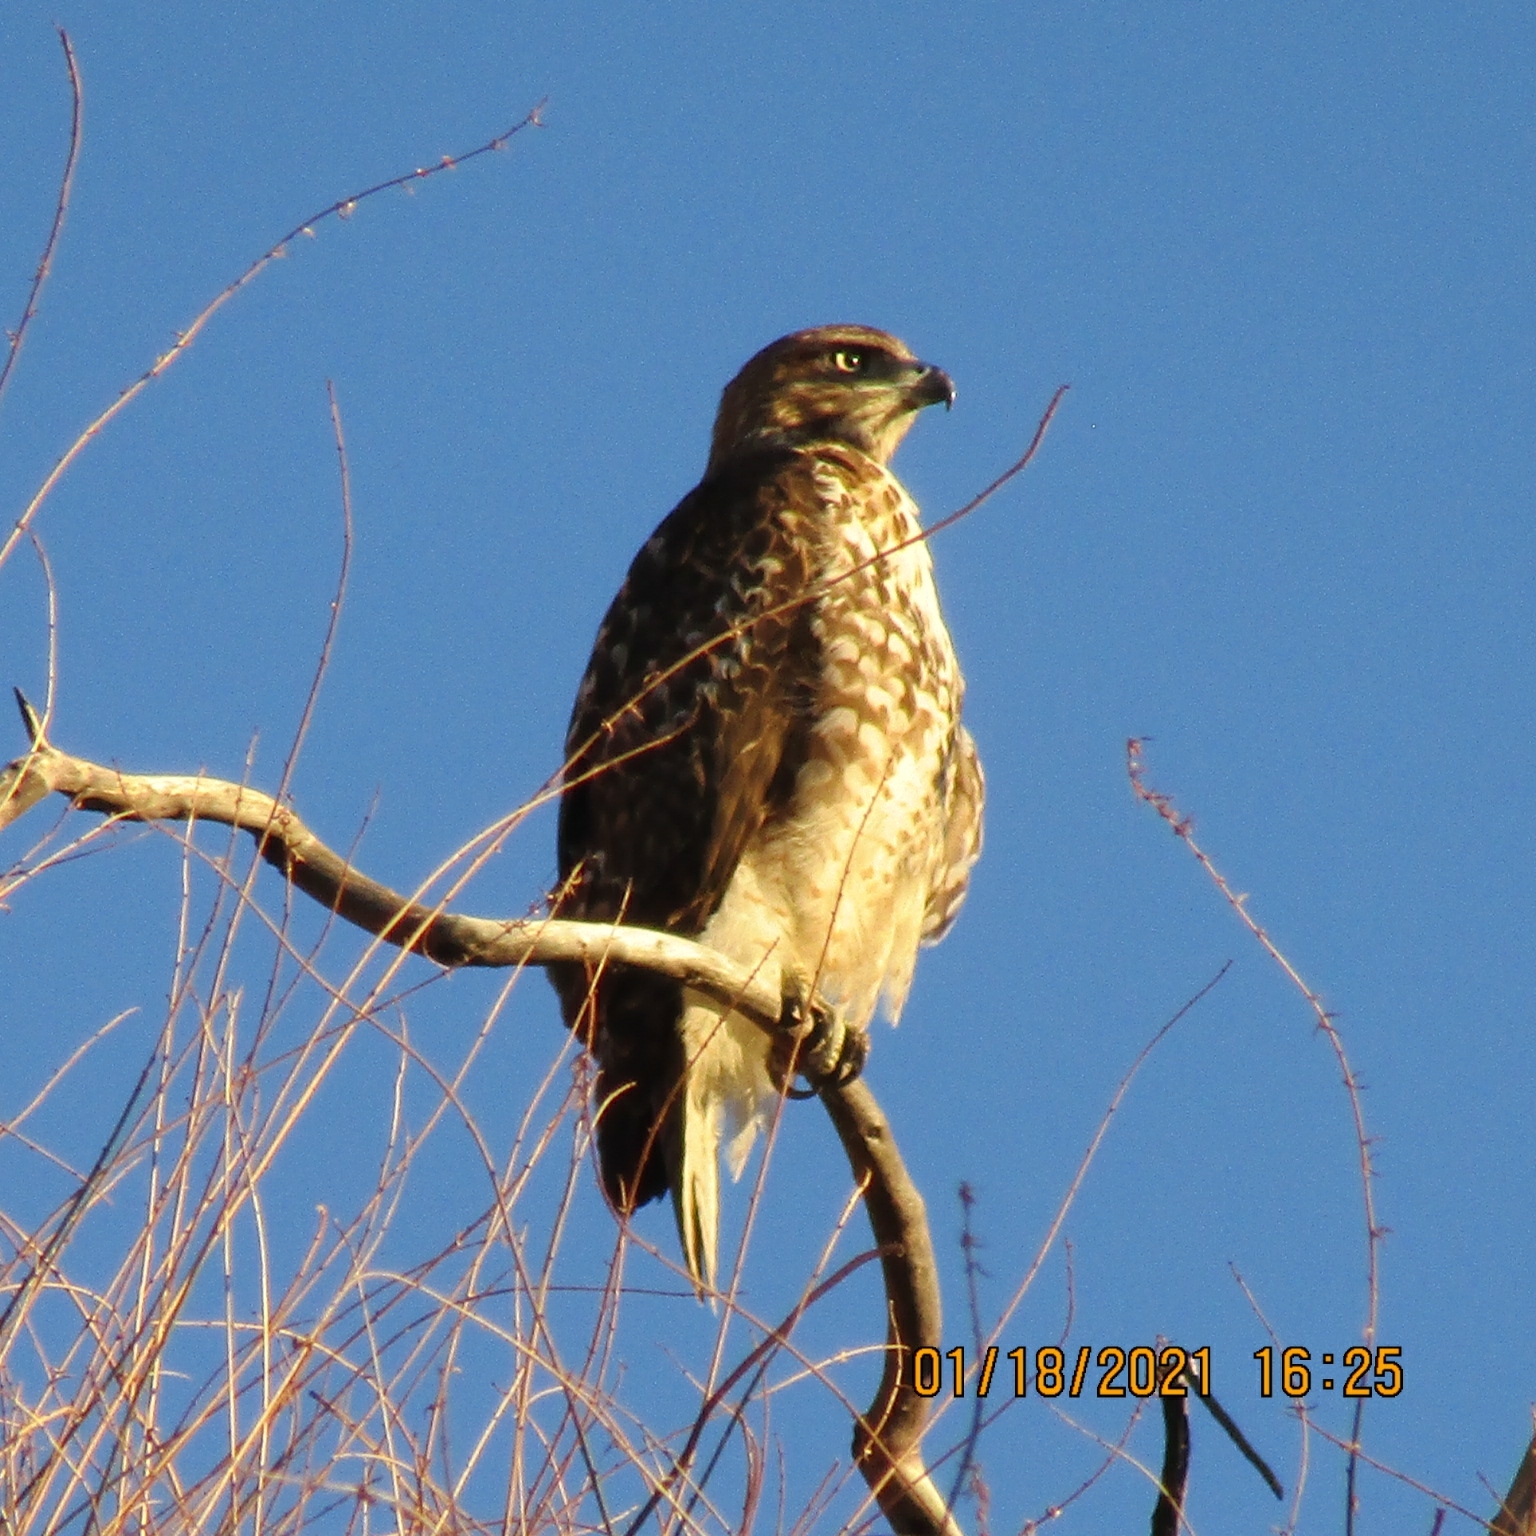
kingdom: Animalia
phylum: Chordata
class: Aves
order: Accipitriformes
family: Accipitridae
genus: Buteo
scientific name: Buteo jamaicensis
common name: Red-tailed hawk
